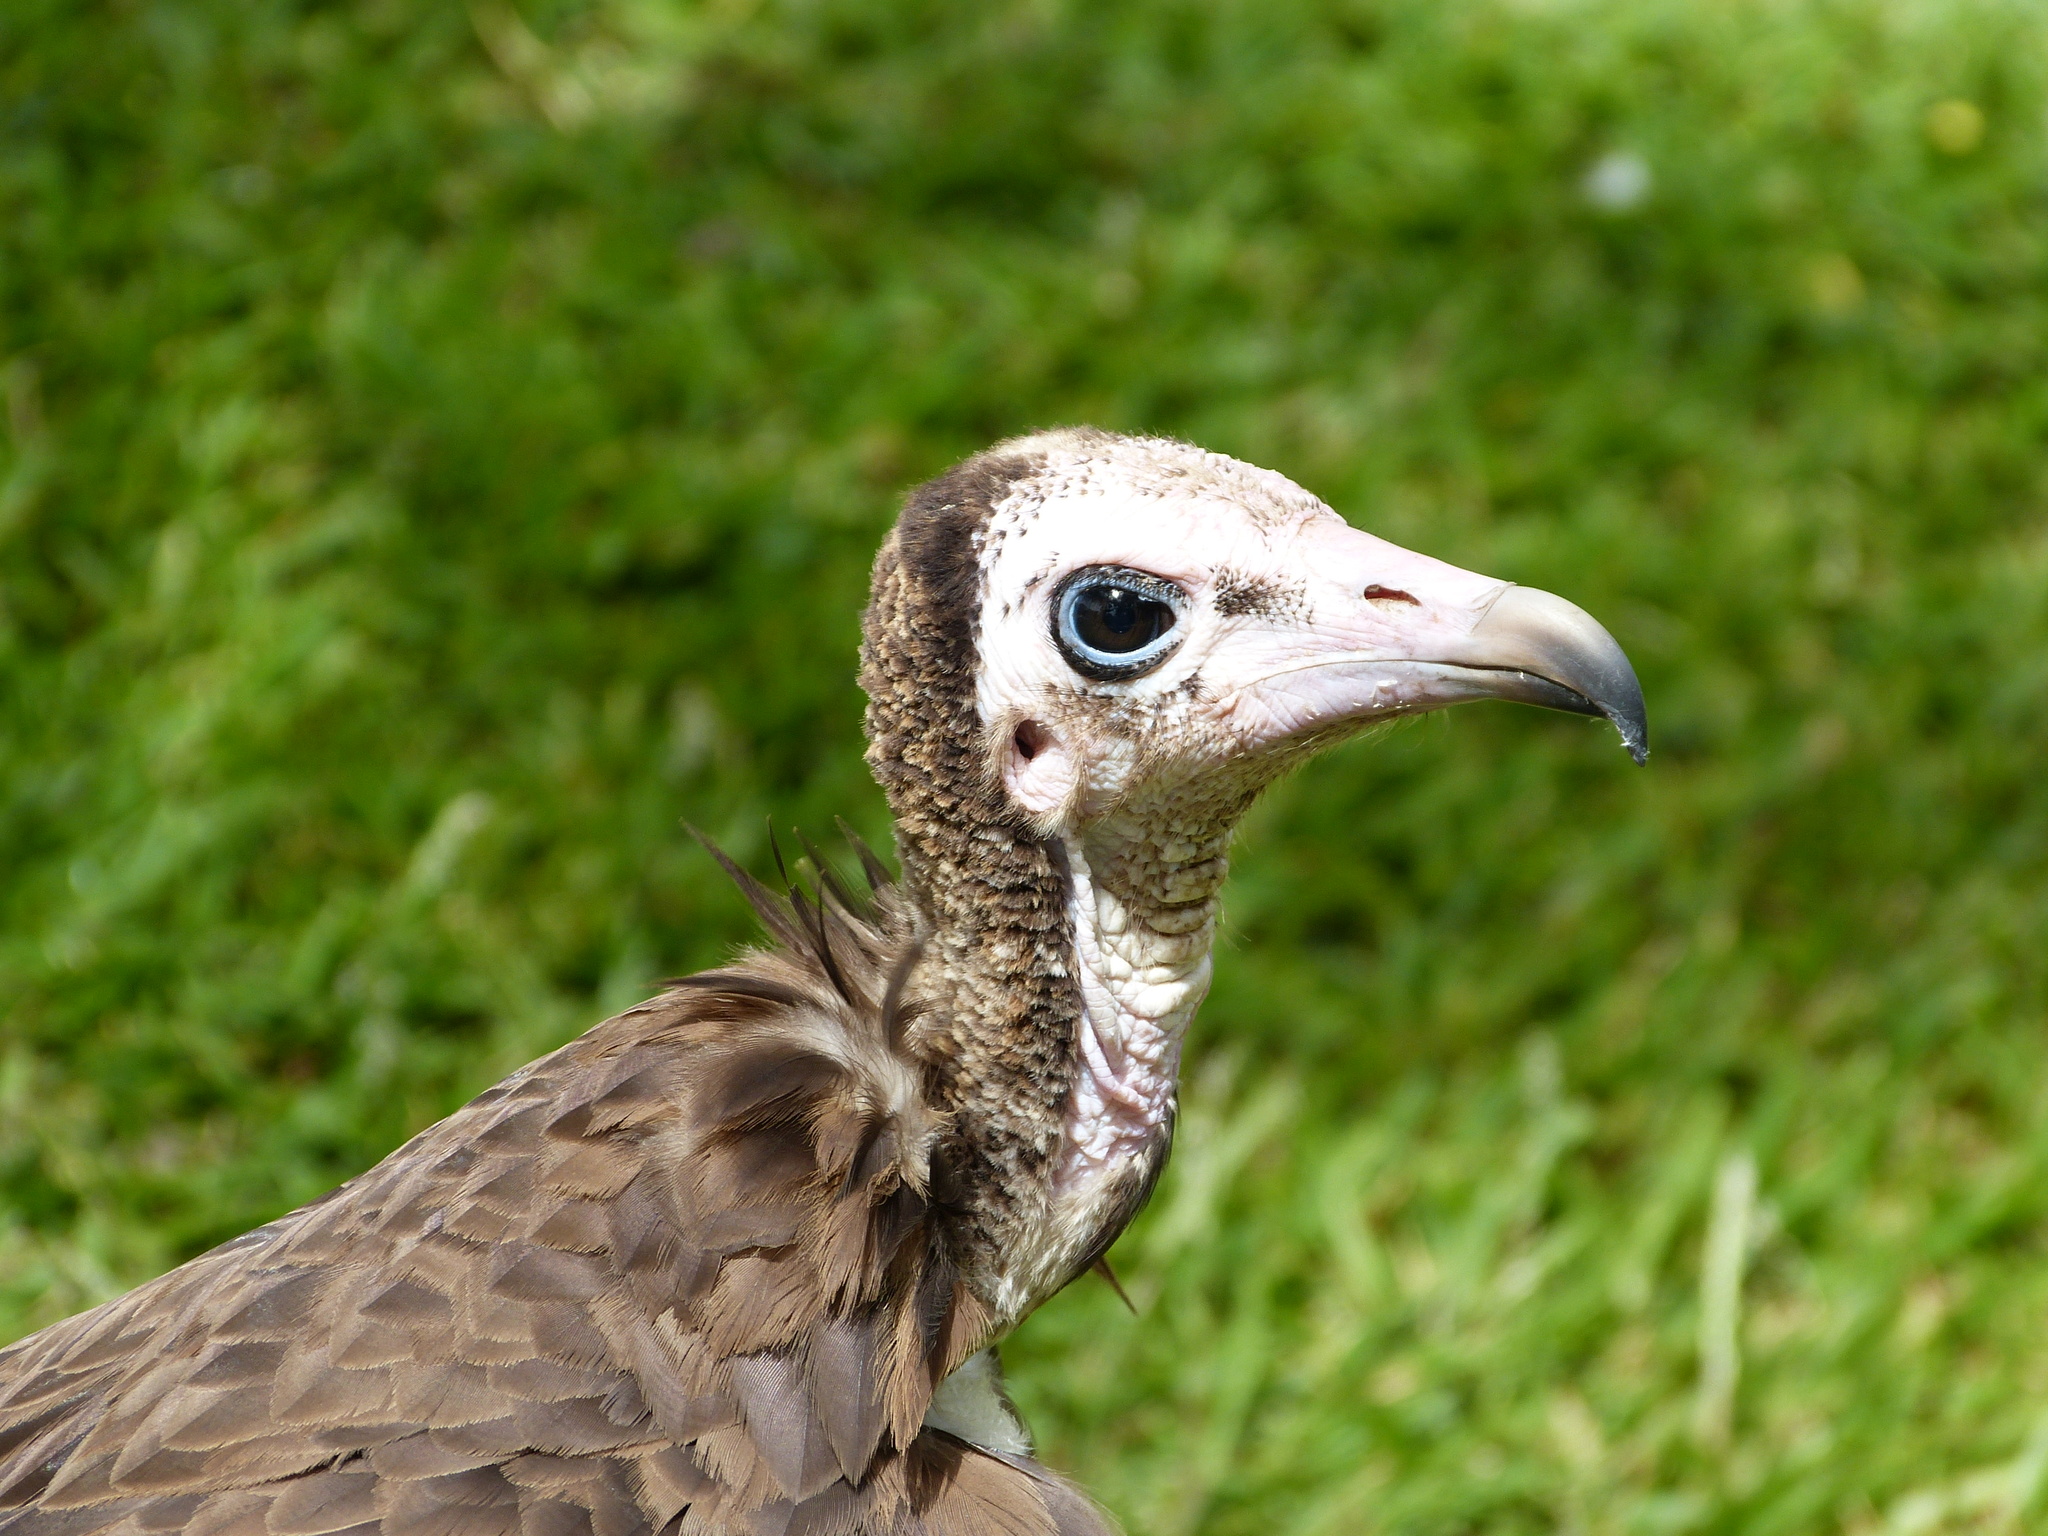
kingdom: Animalia
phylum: Chordata
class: Aves
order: Accipitriformes
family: Accipitridae
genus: Necrosyrtes
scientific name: Necrosyrtes monachus
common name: Hooded vulture
